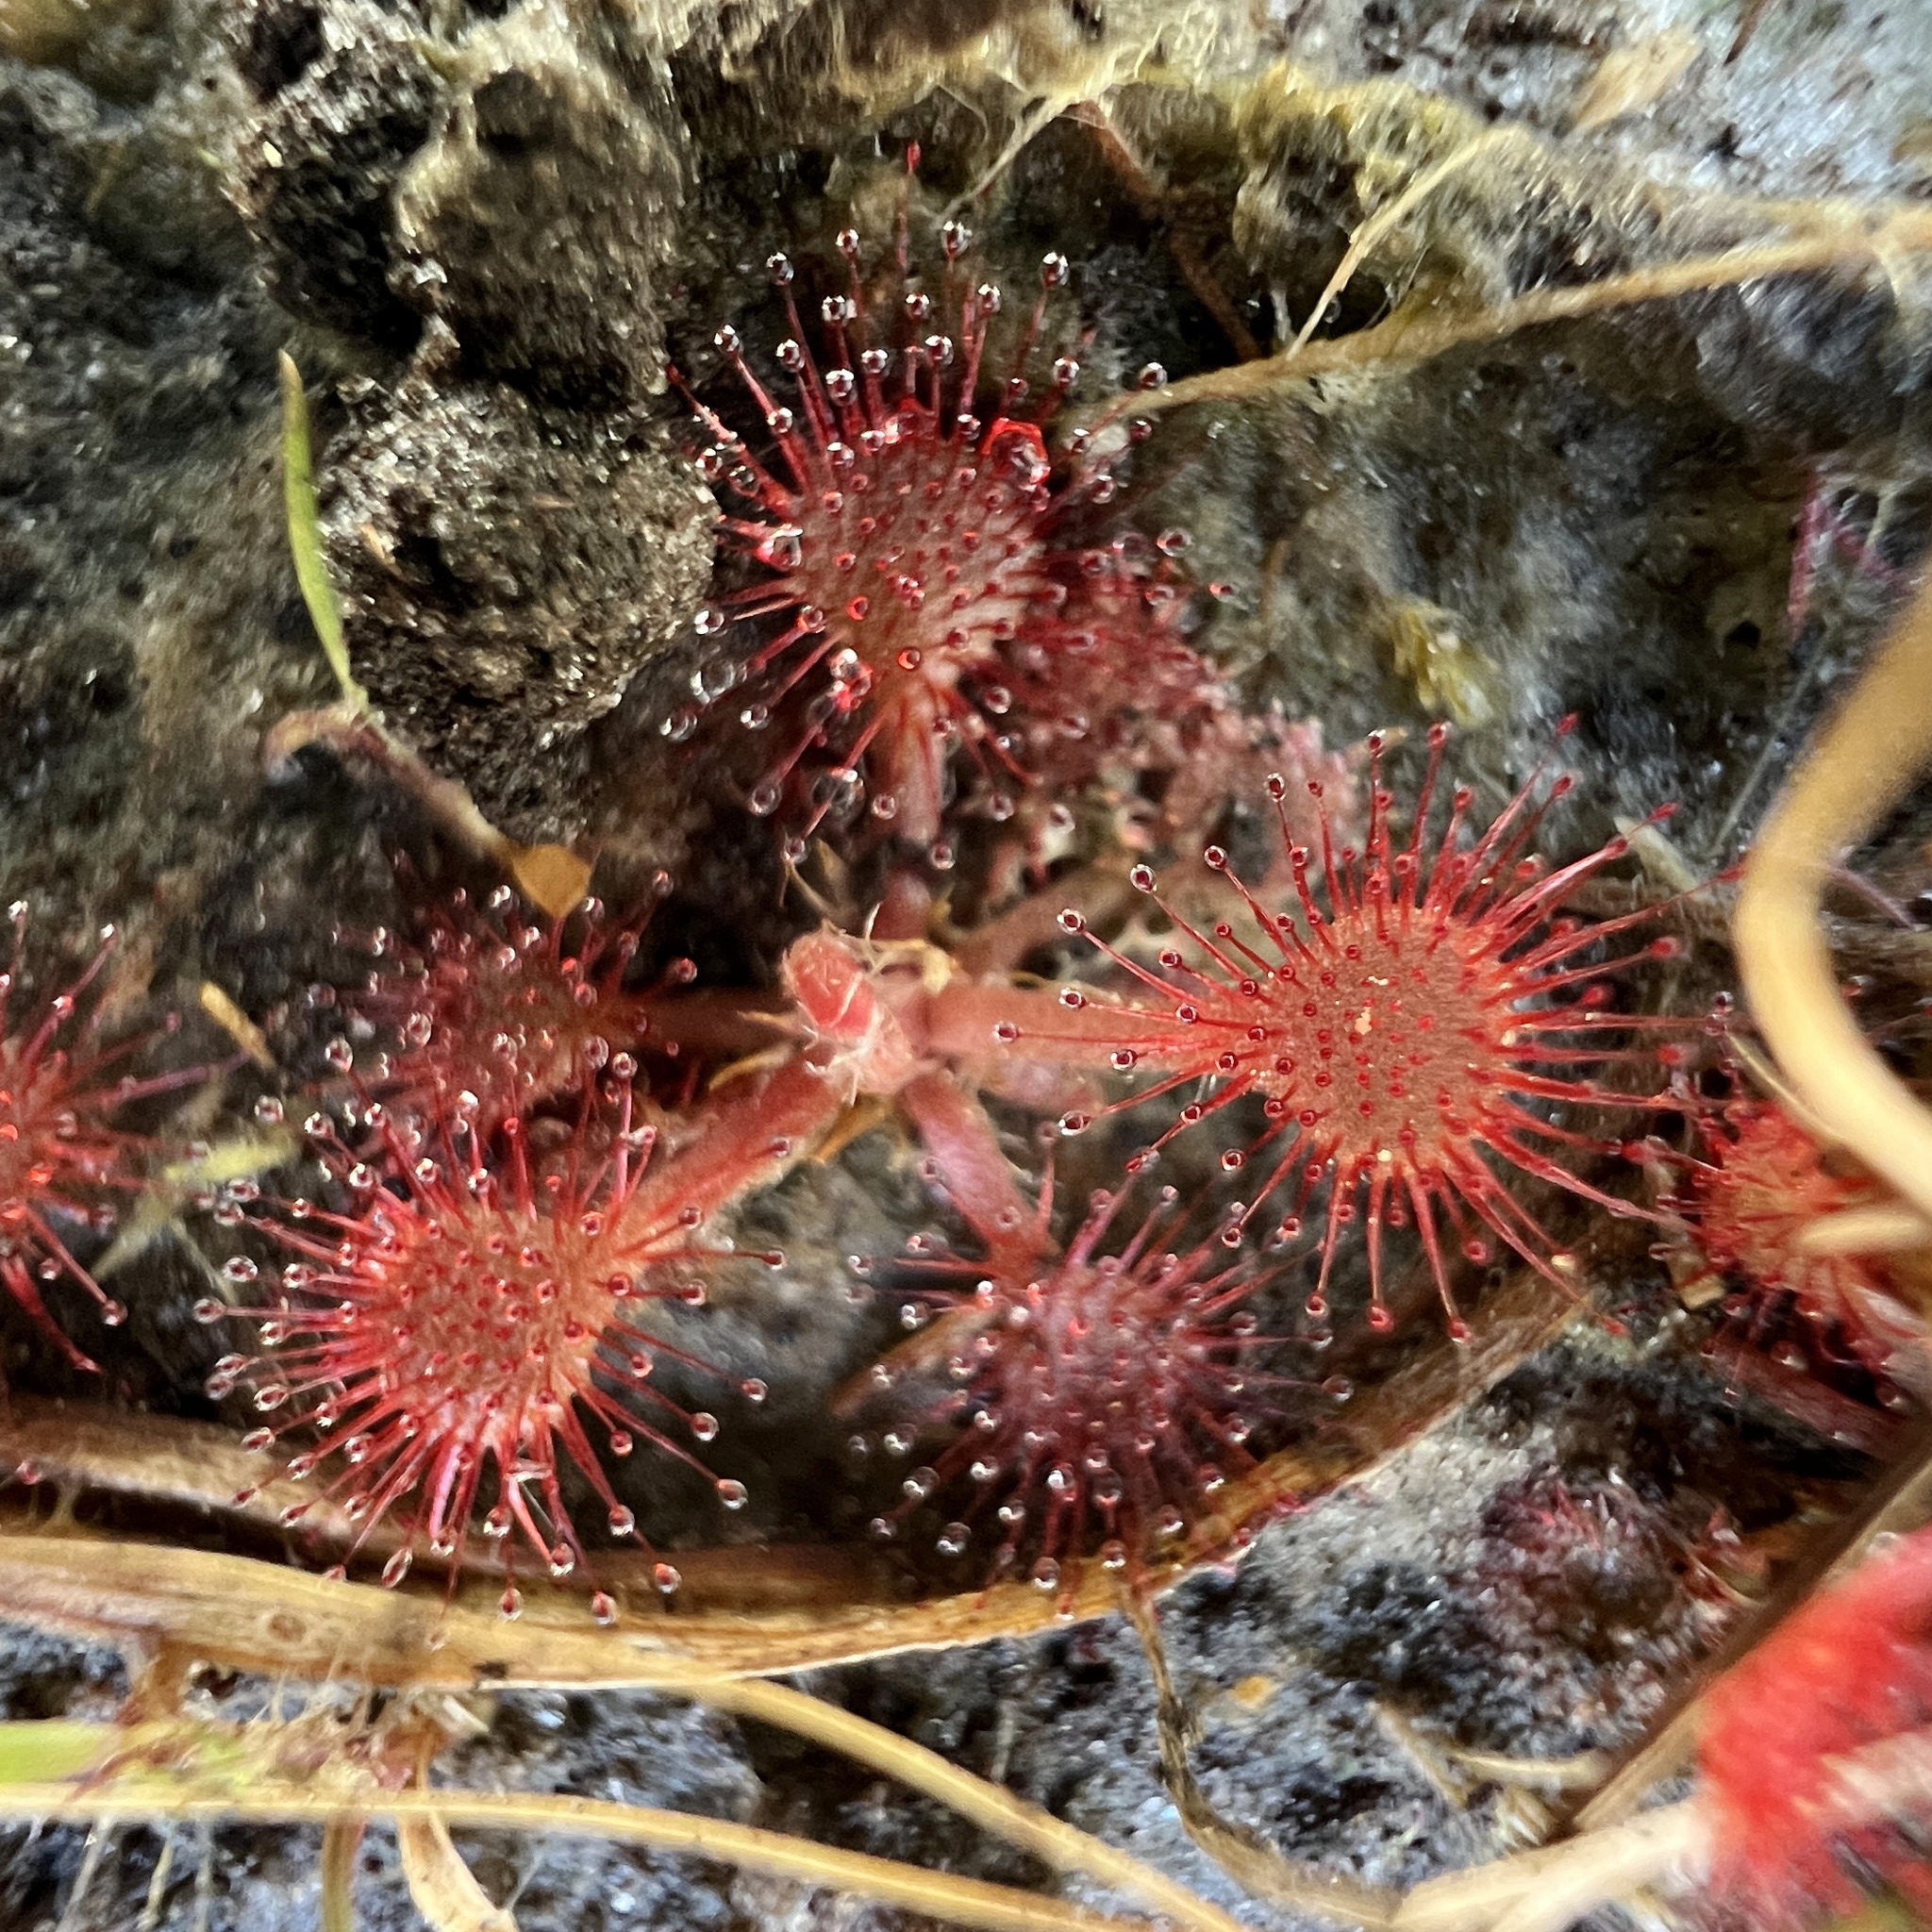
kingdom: Plantae
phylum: Tracheophyta
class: Magnoliopsida
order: Caryophyllales
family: Droseraceae
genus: Drosera
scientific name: Drosera capillaris
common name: Pink sundew
